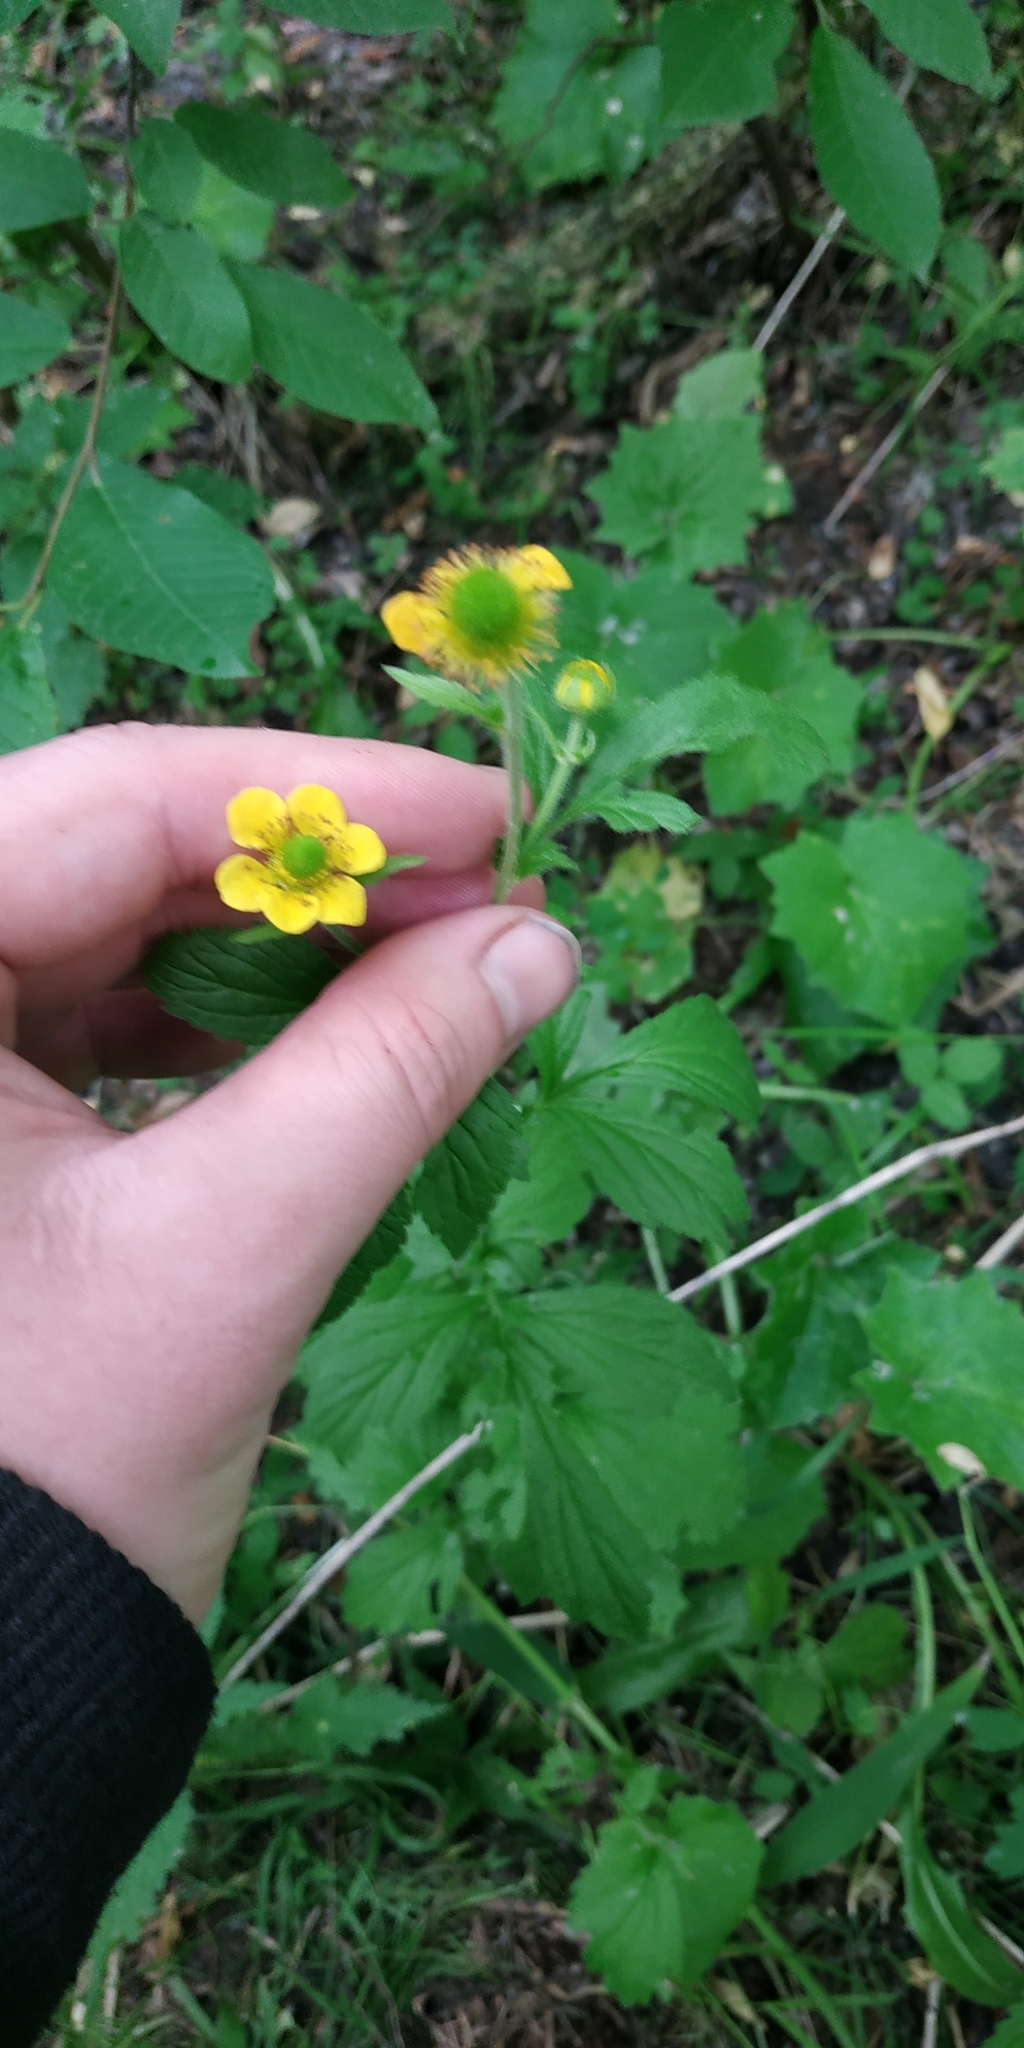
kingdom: Plantae
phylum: Tracheophyta
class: Magnoliopsida
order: Rosales
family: Rosaceae
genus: Geum
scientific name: Geum aleppicum
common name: Yellow avens
